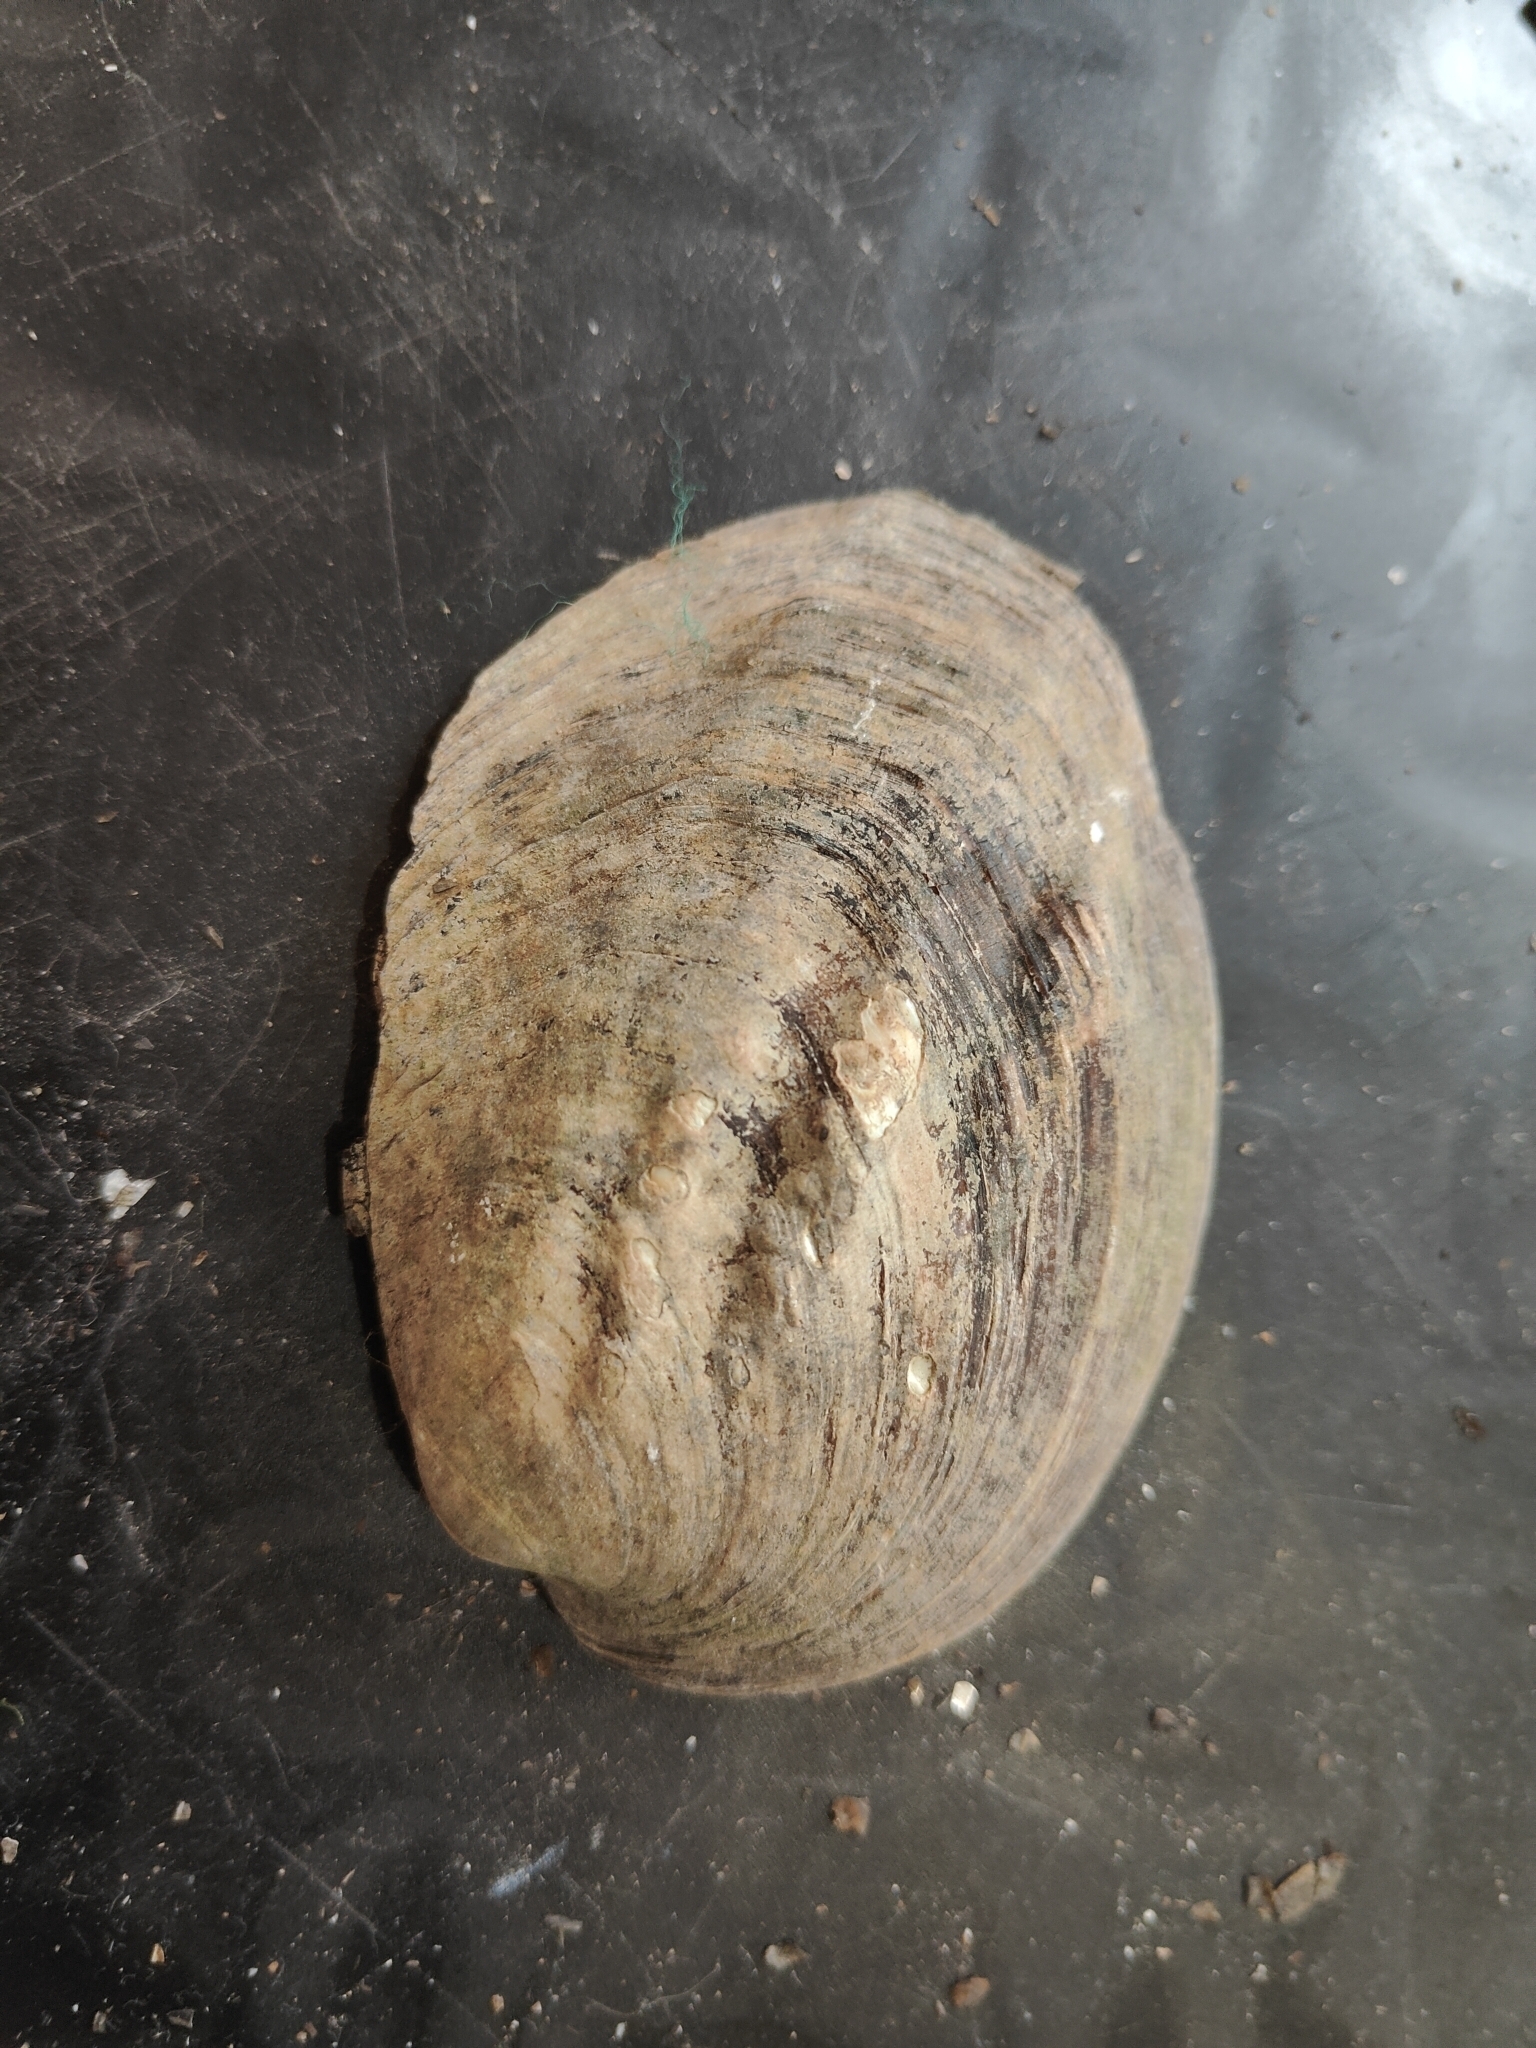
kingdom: Animalia
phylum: Mollusca
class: Bivalvia
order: Unionida
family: Unionidae
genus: Amblema
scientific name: Amblema plicata
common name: Threeridge
